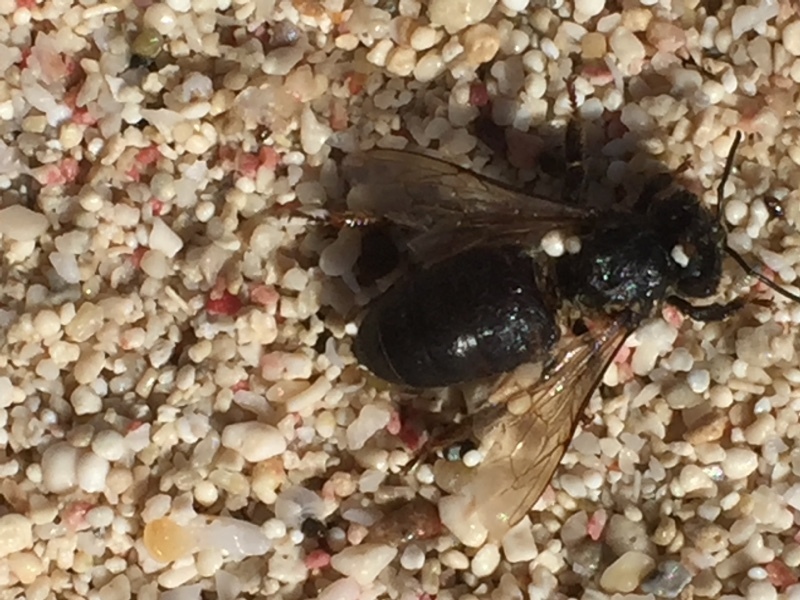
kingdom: Animalia
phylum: Arthropoda
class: Insecta
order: Hymenoptera
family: Apidae
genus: Apis
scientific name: Apis mellifera
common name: Honey bee
